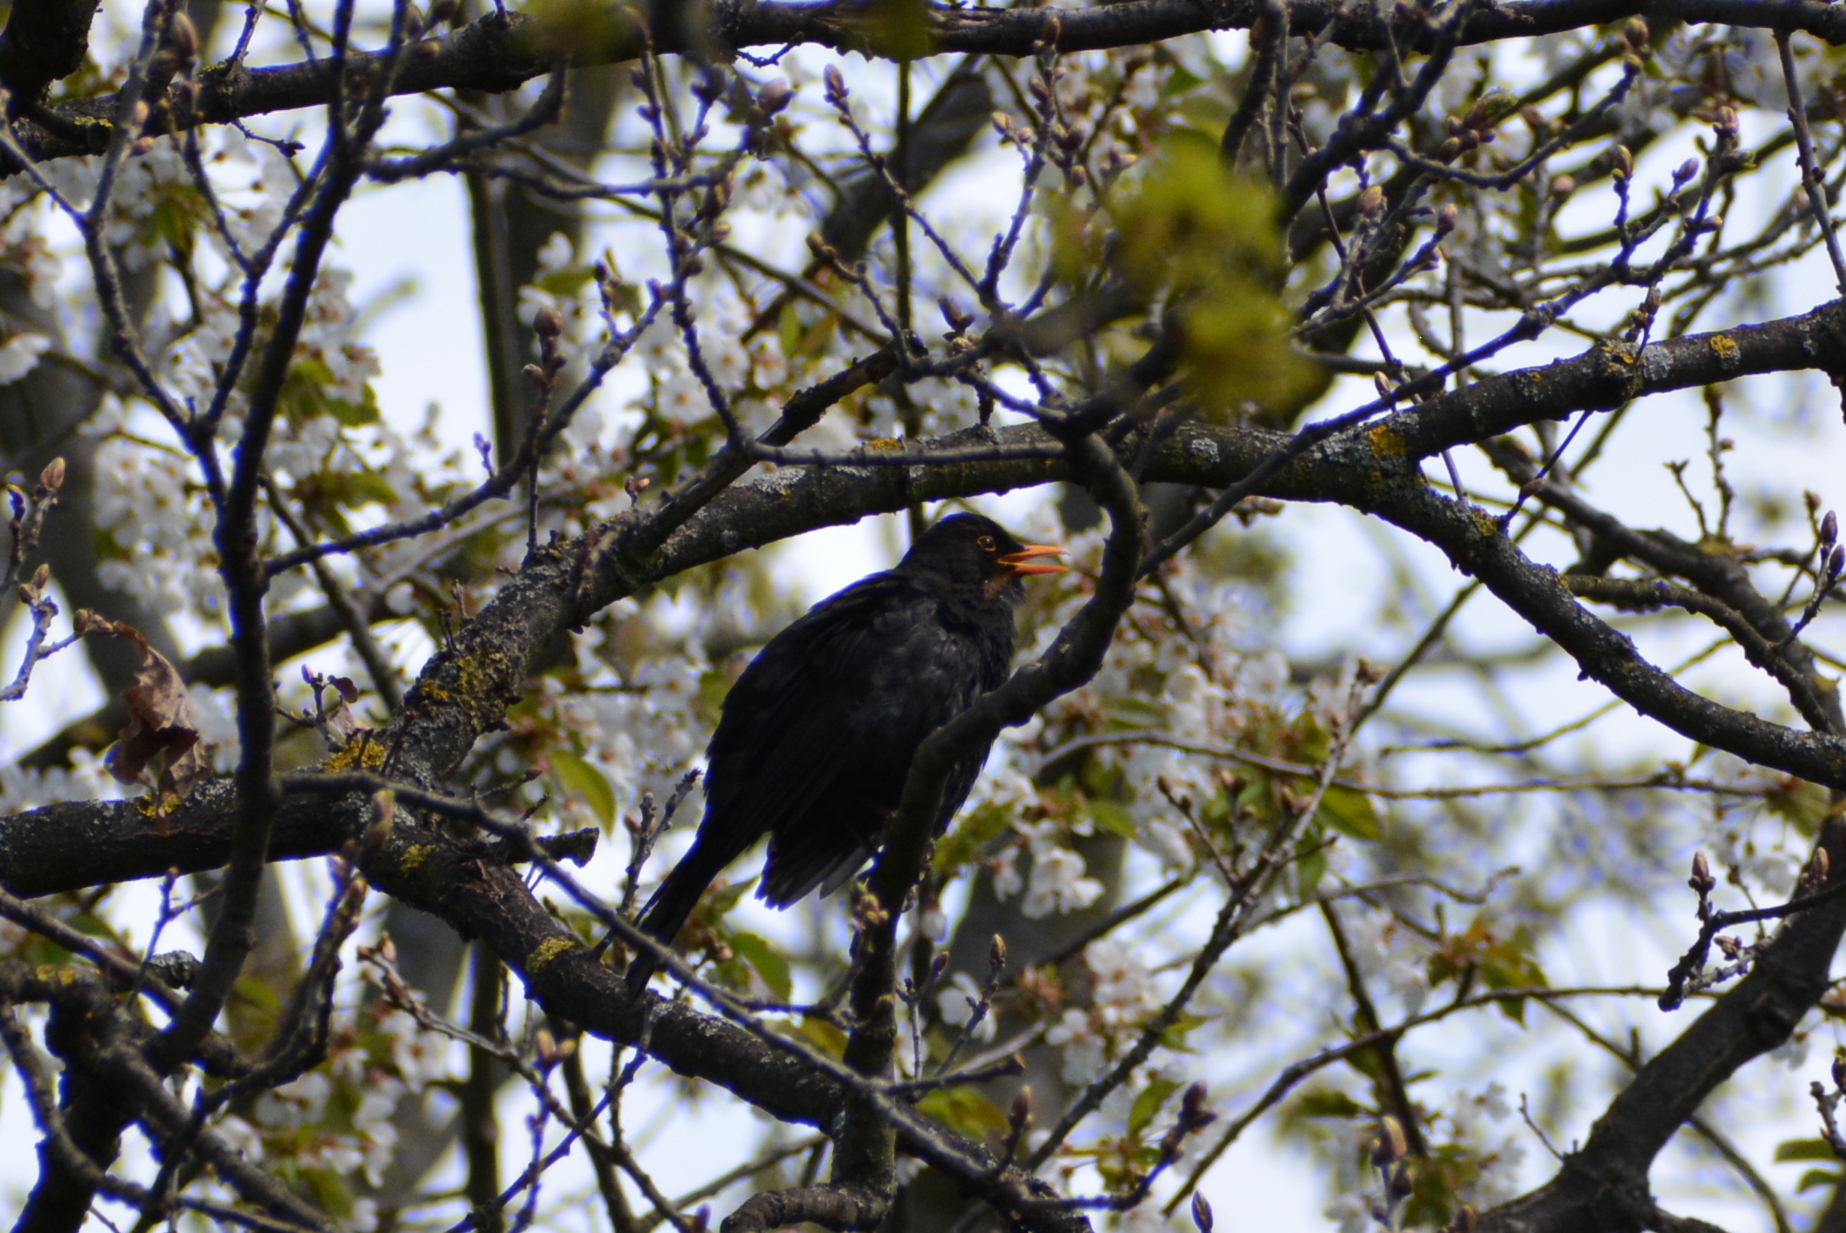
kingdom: Animalia
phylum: Chordata
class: Aves
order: Passeriformes
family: Turdidae
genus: Turdus
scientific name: Turdus merula
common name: Common blackbird
